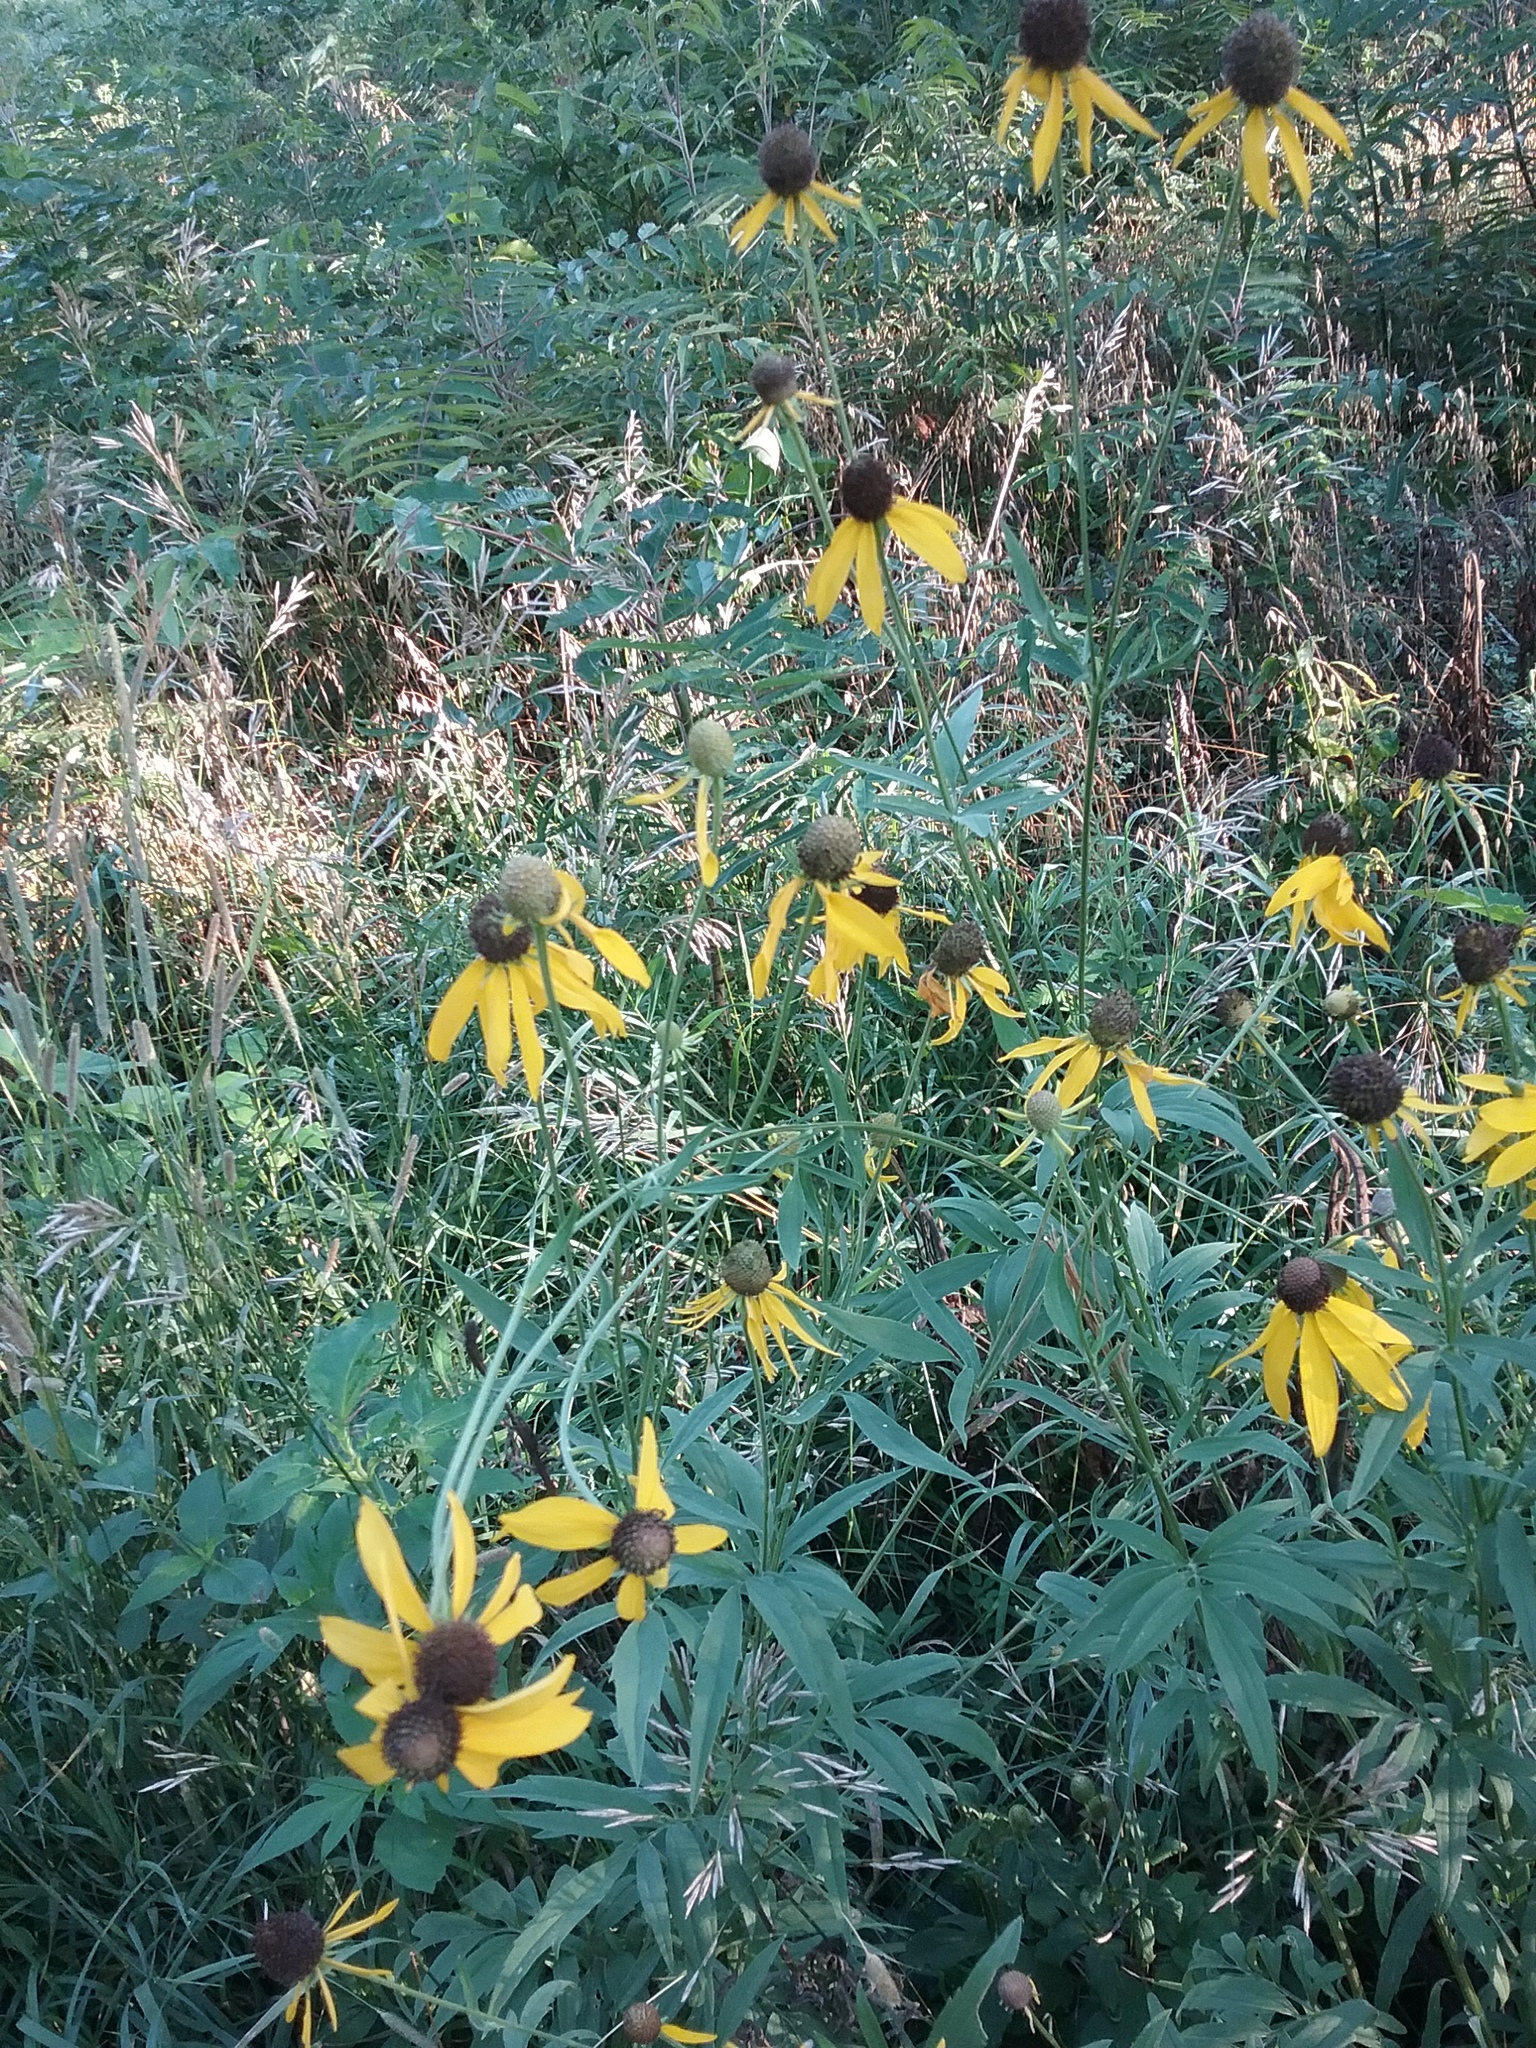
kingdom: Plantae
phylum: Tracheophyta
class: Magnoliopsida
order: Asterales
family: Asteraceae
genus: Ratibida
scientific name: Ratibida pinnata
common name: Drooping prairie-coneflower
